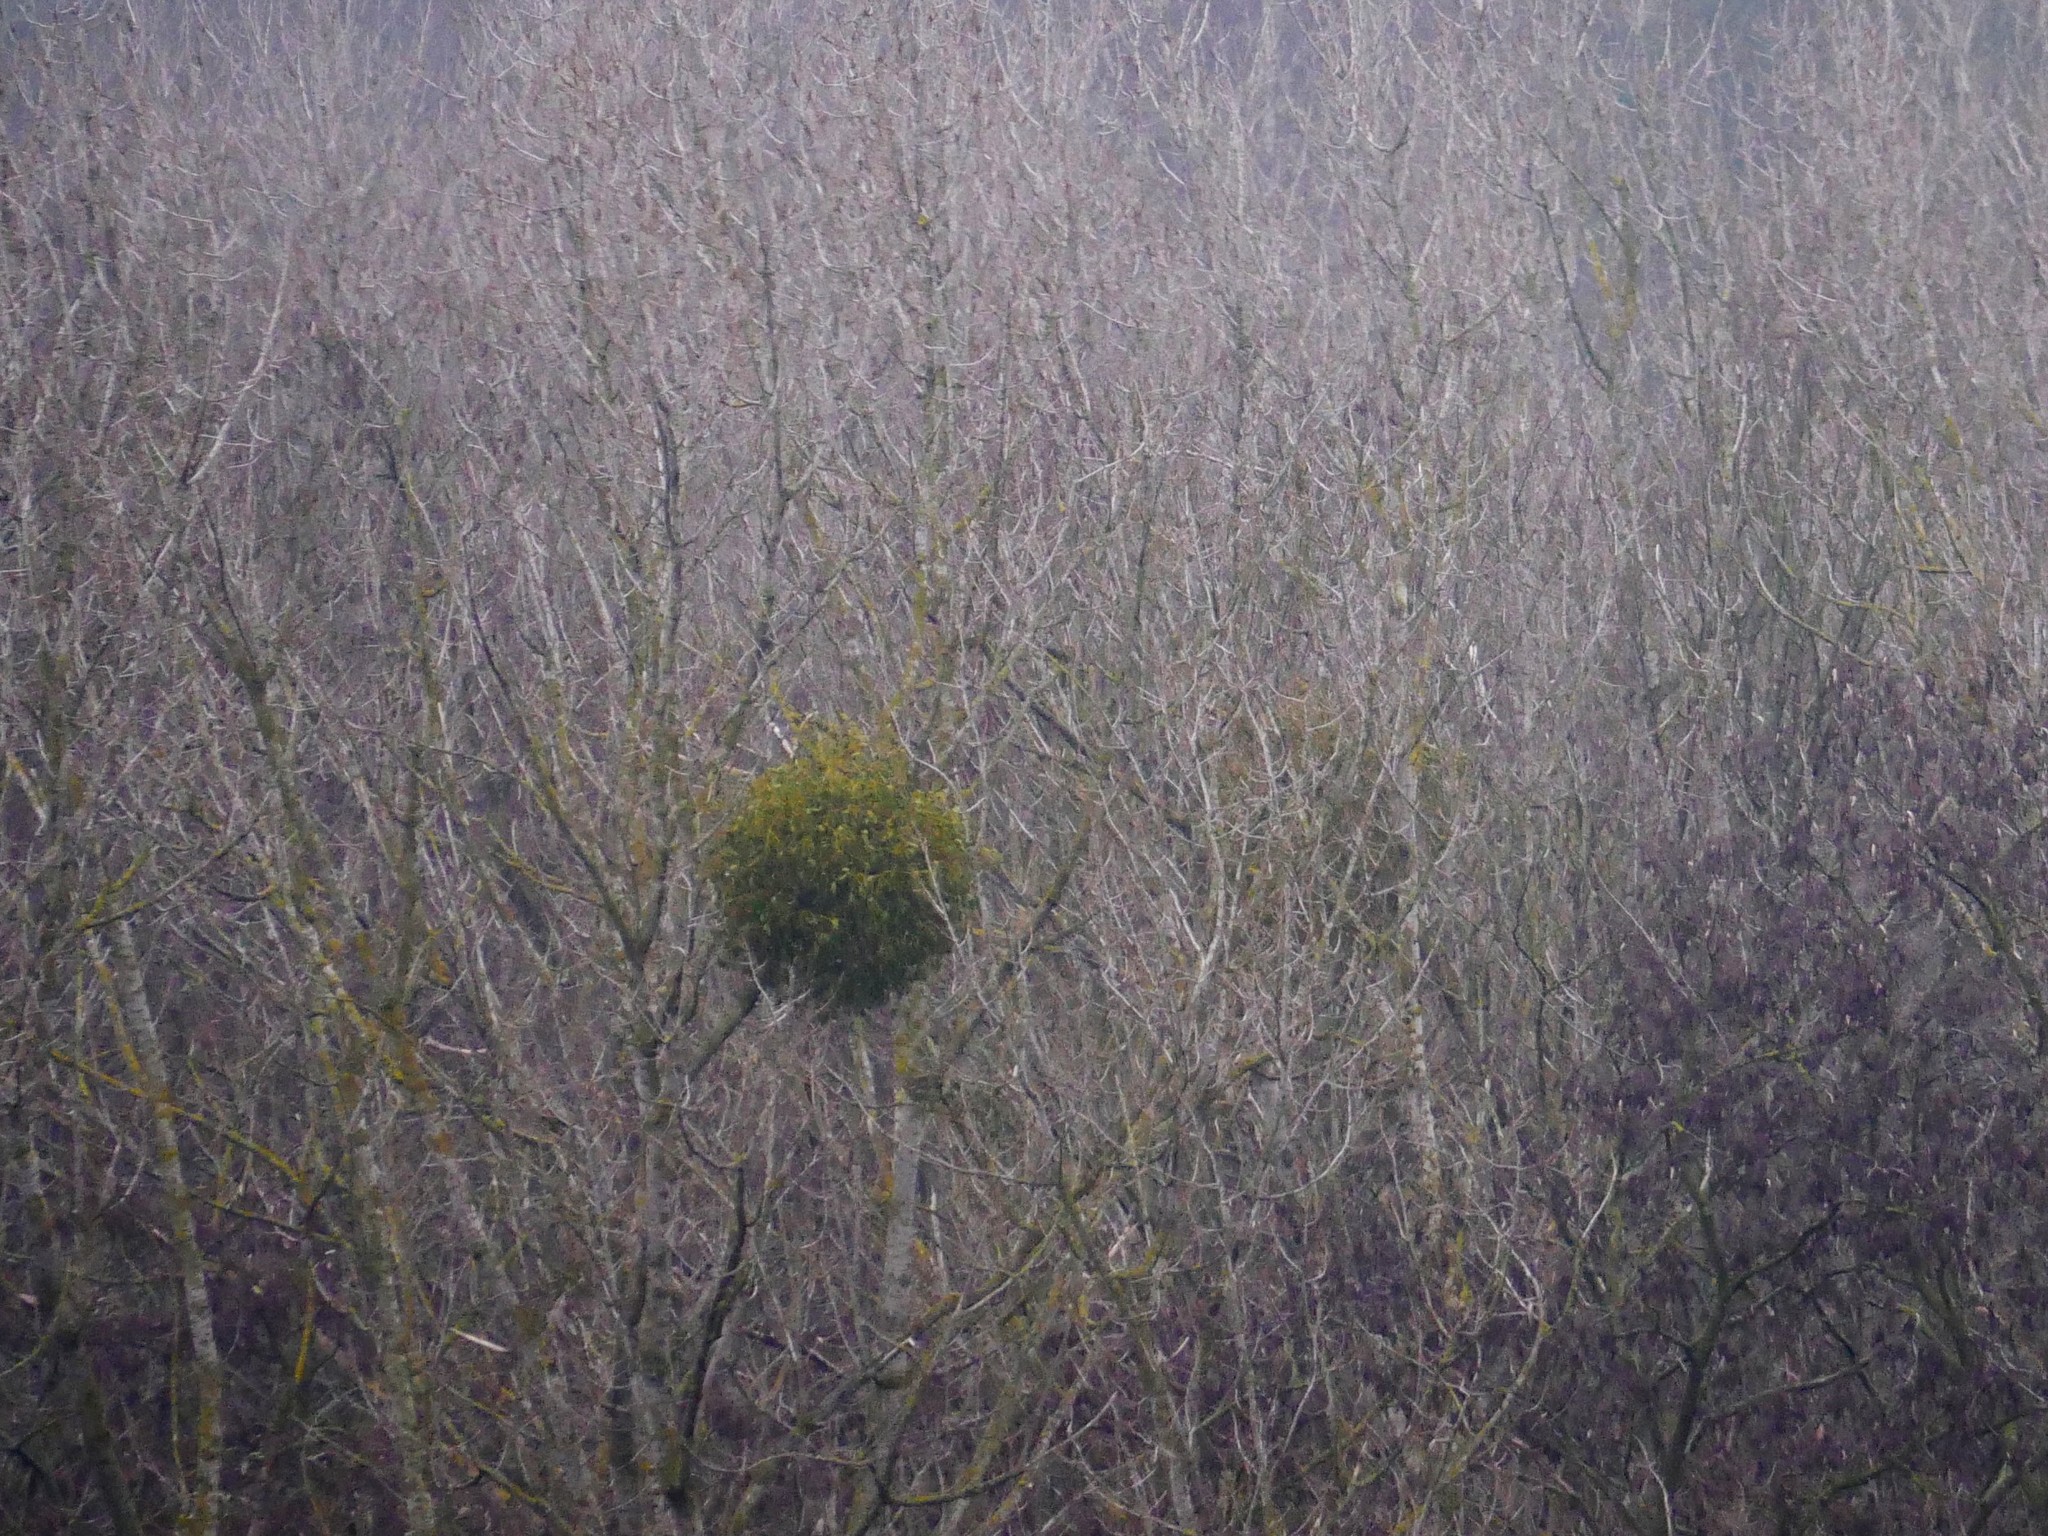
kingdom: Plantae
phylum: Tracheophyta
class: Magnoliopsida
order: Santalales
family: Viscaceae
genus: Viscum
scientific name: Viscum album
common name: Mistletoe
